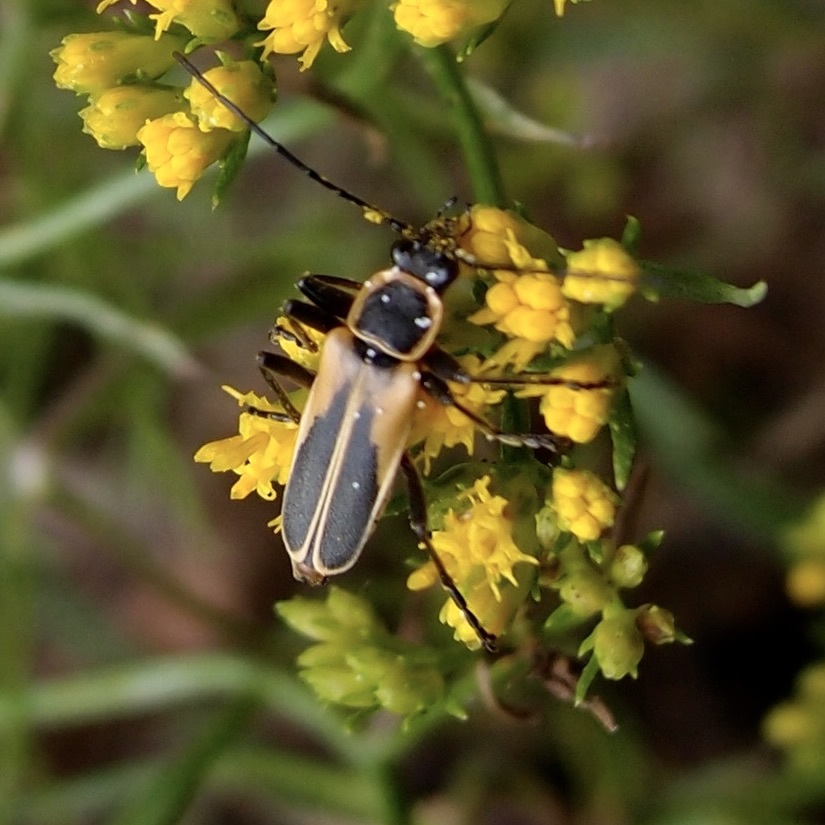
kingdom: Animalia
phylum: Arthropoda
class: Insecta
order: Coleoptera
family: Cantharidae
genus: Chauliognathus
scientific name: Chauliognathus opacus
